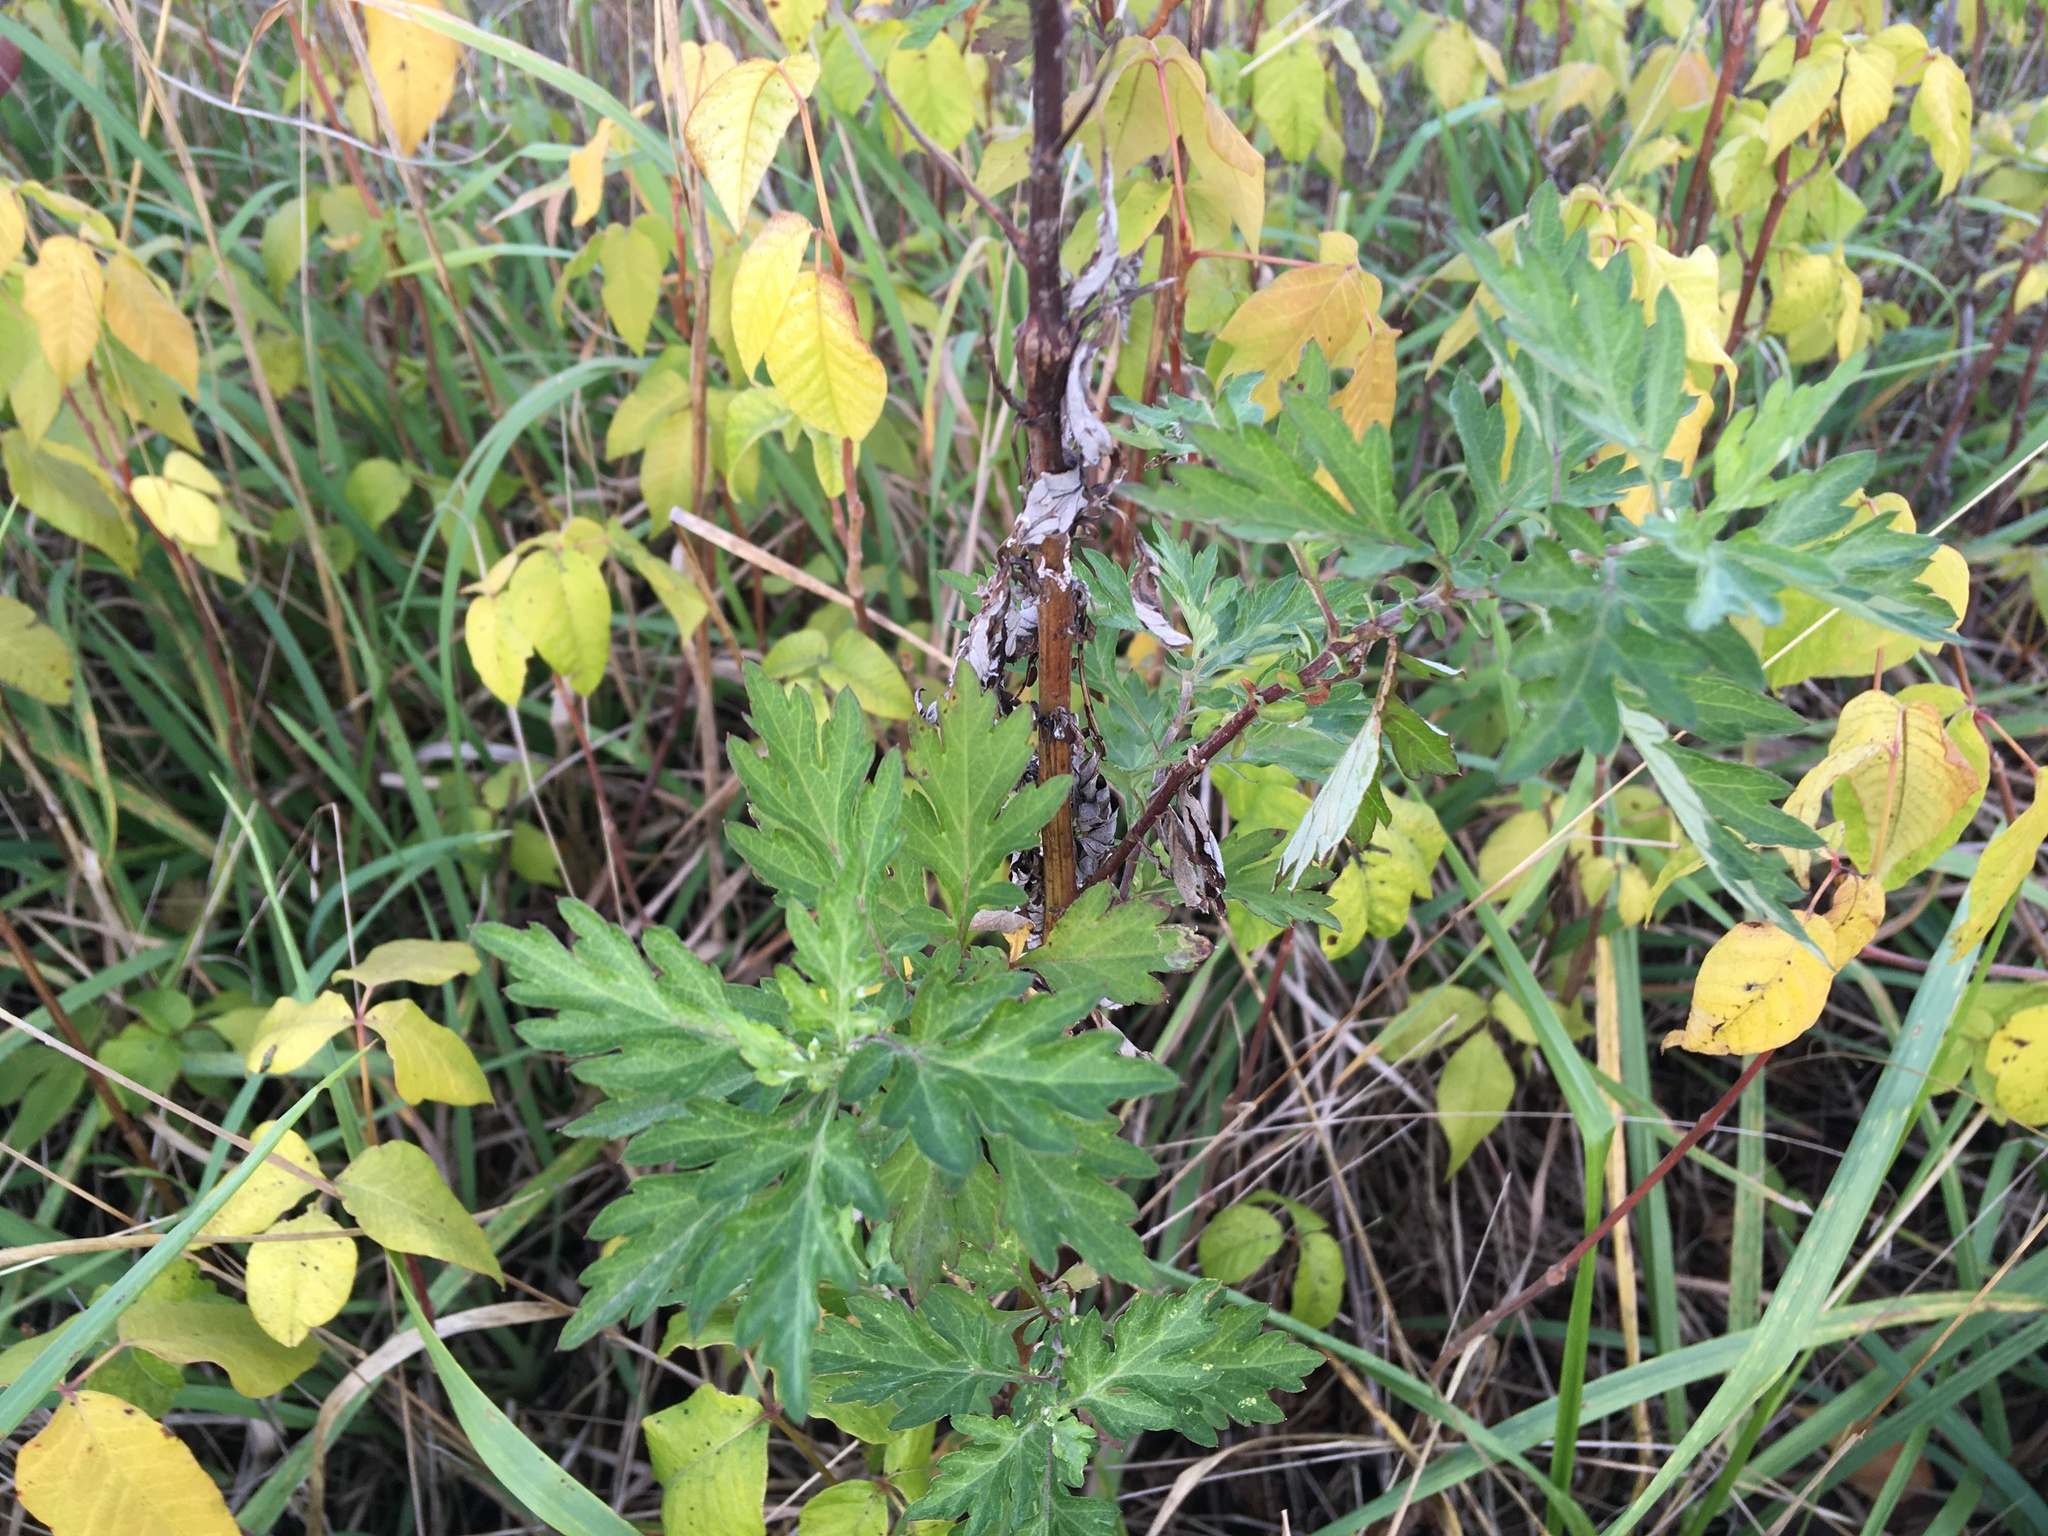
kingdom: Plantae
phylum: Tracheophyta
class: Magnoliopsida
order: Asterales
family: Asteraceae
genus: Artemisia
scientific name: Artemisia vulgaris
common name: Mugwort
